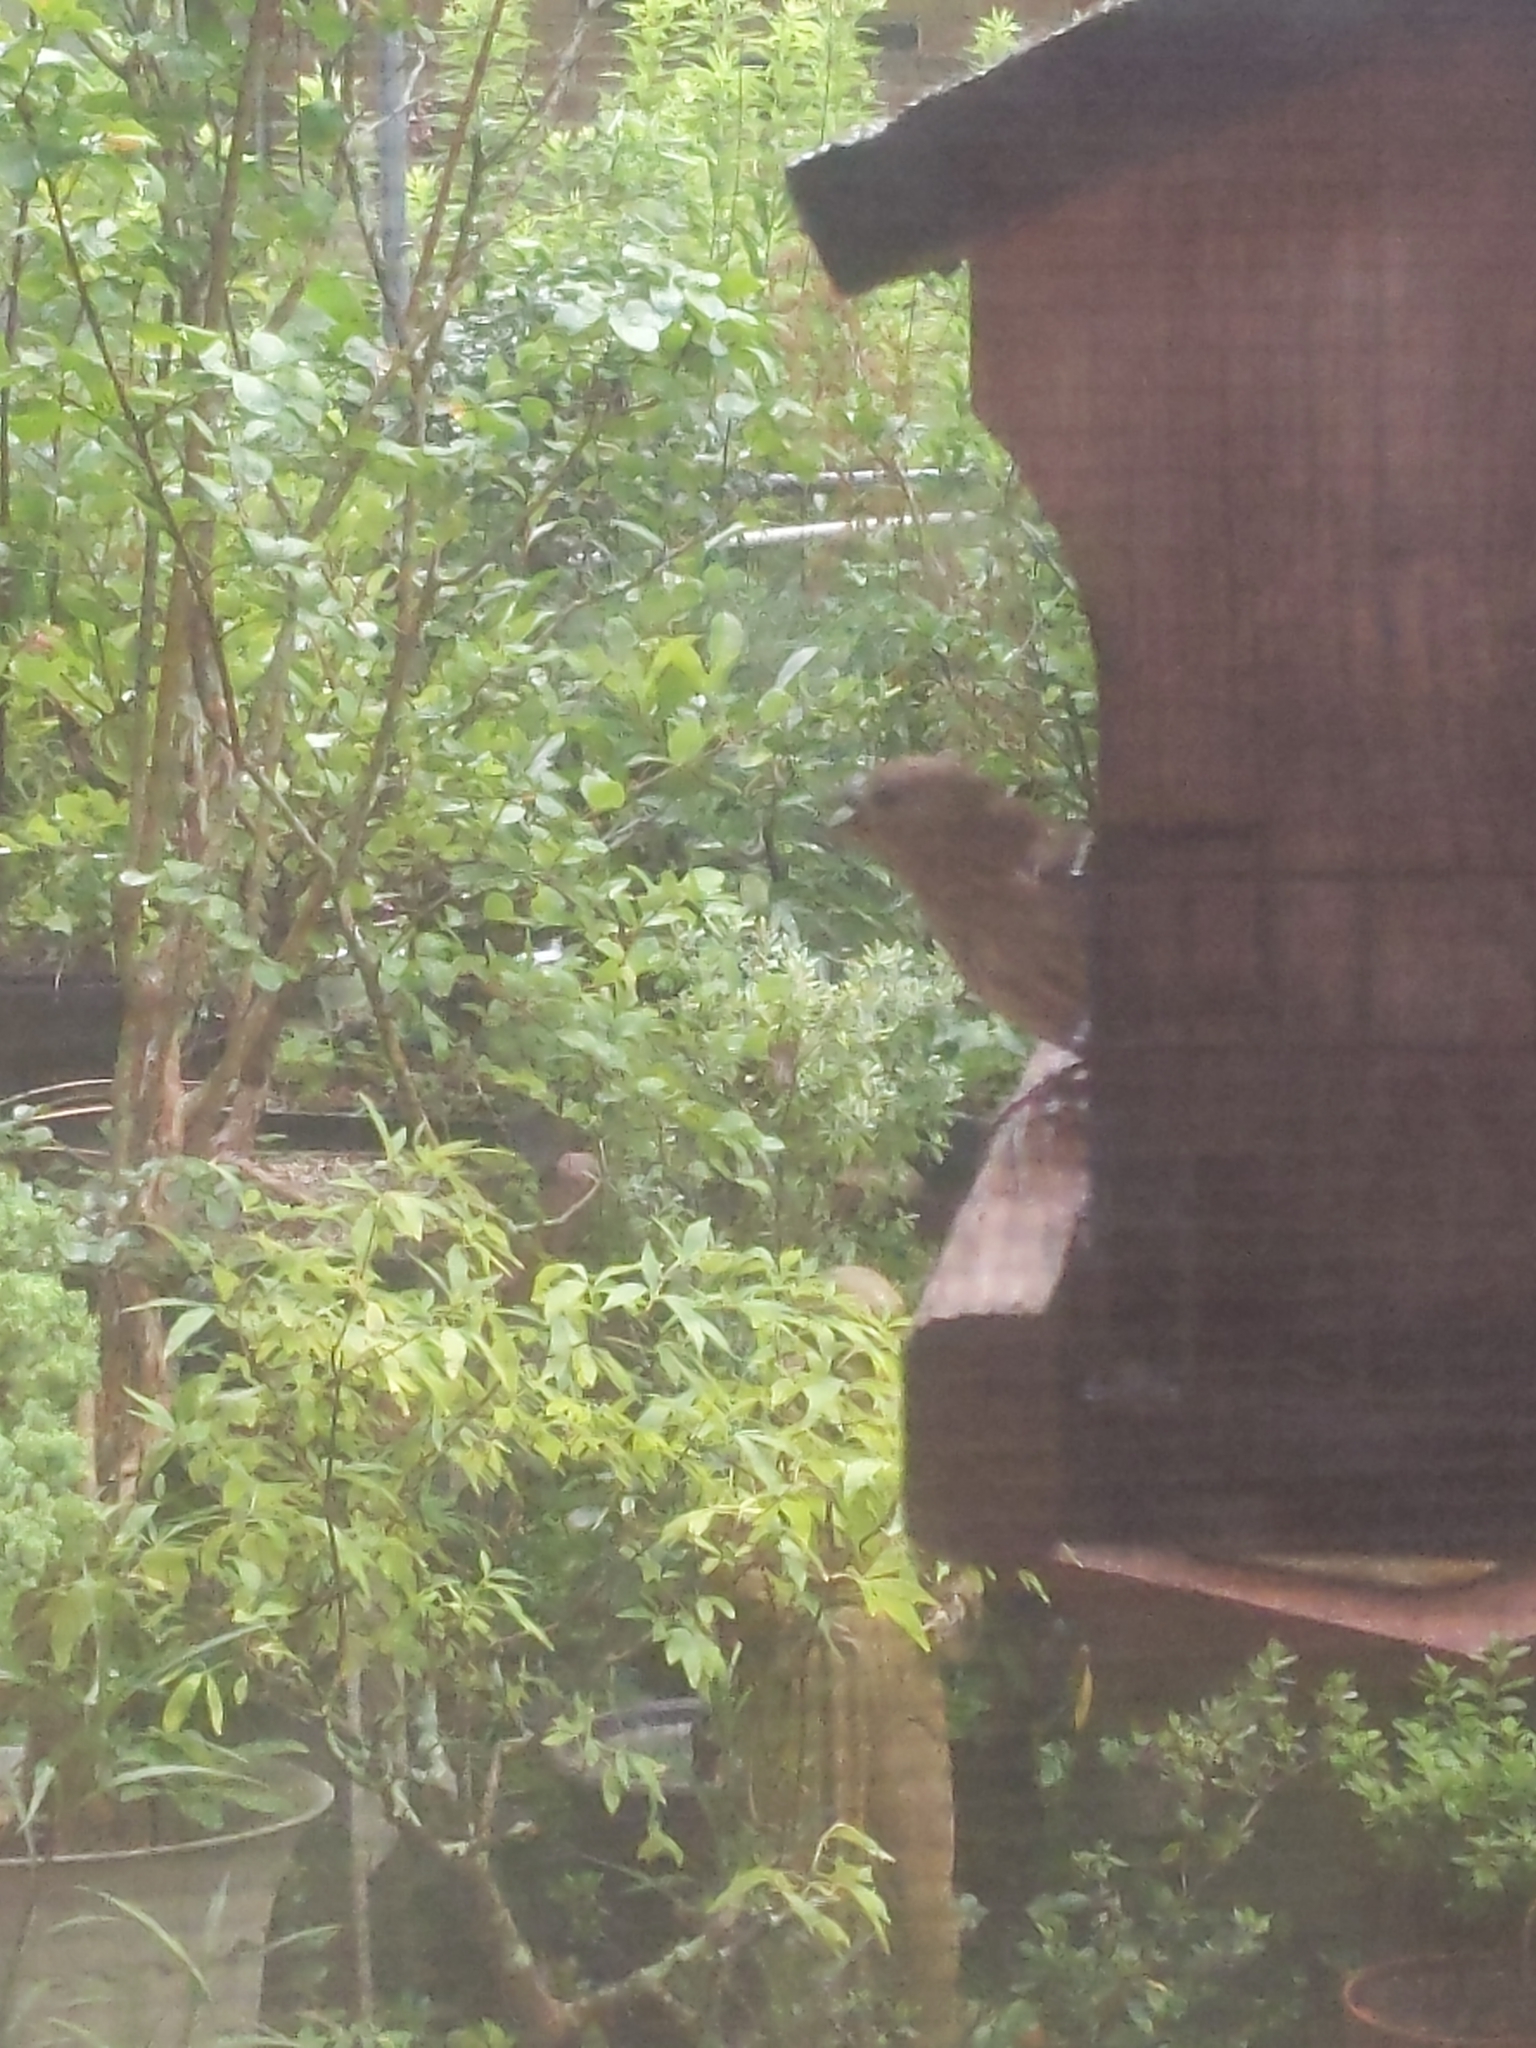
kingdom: Animalia
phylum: Chordata
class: Aves
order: Passeriformes
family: Fringillidae
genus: Haemorhous
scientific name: Haemorhous mexicanus
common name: House finch
